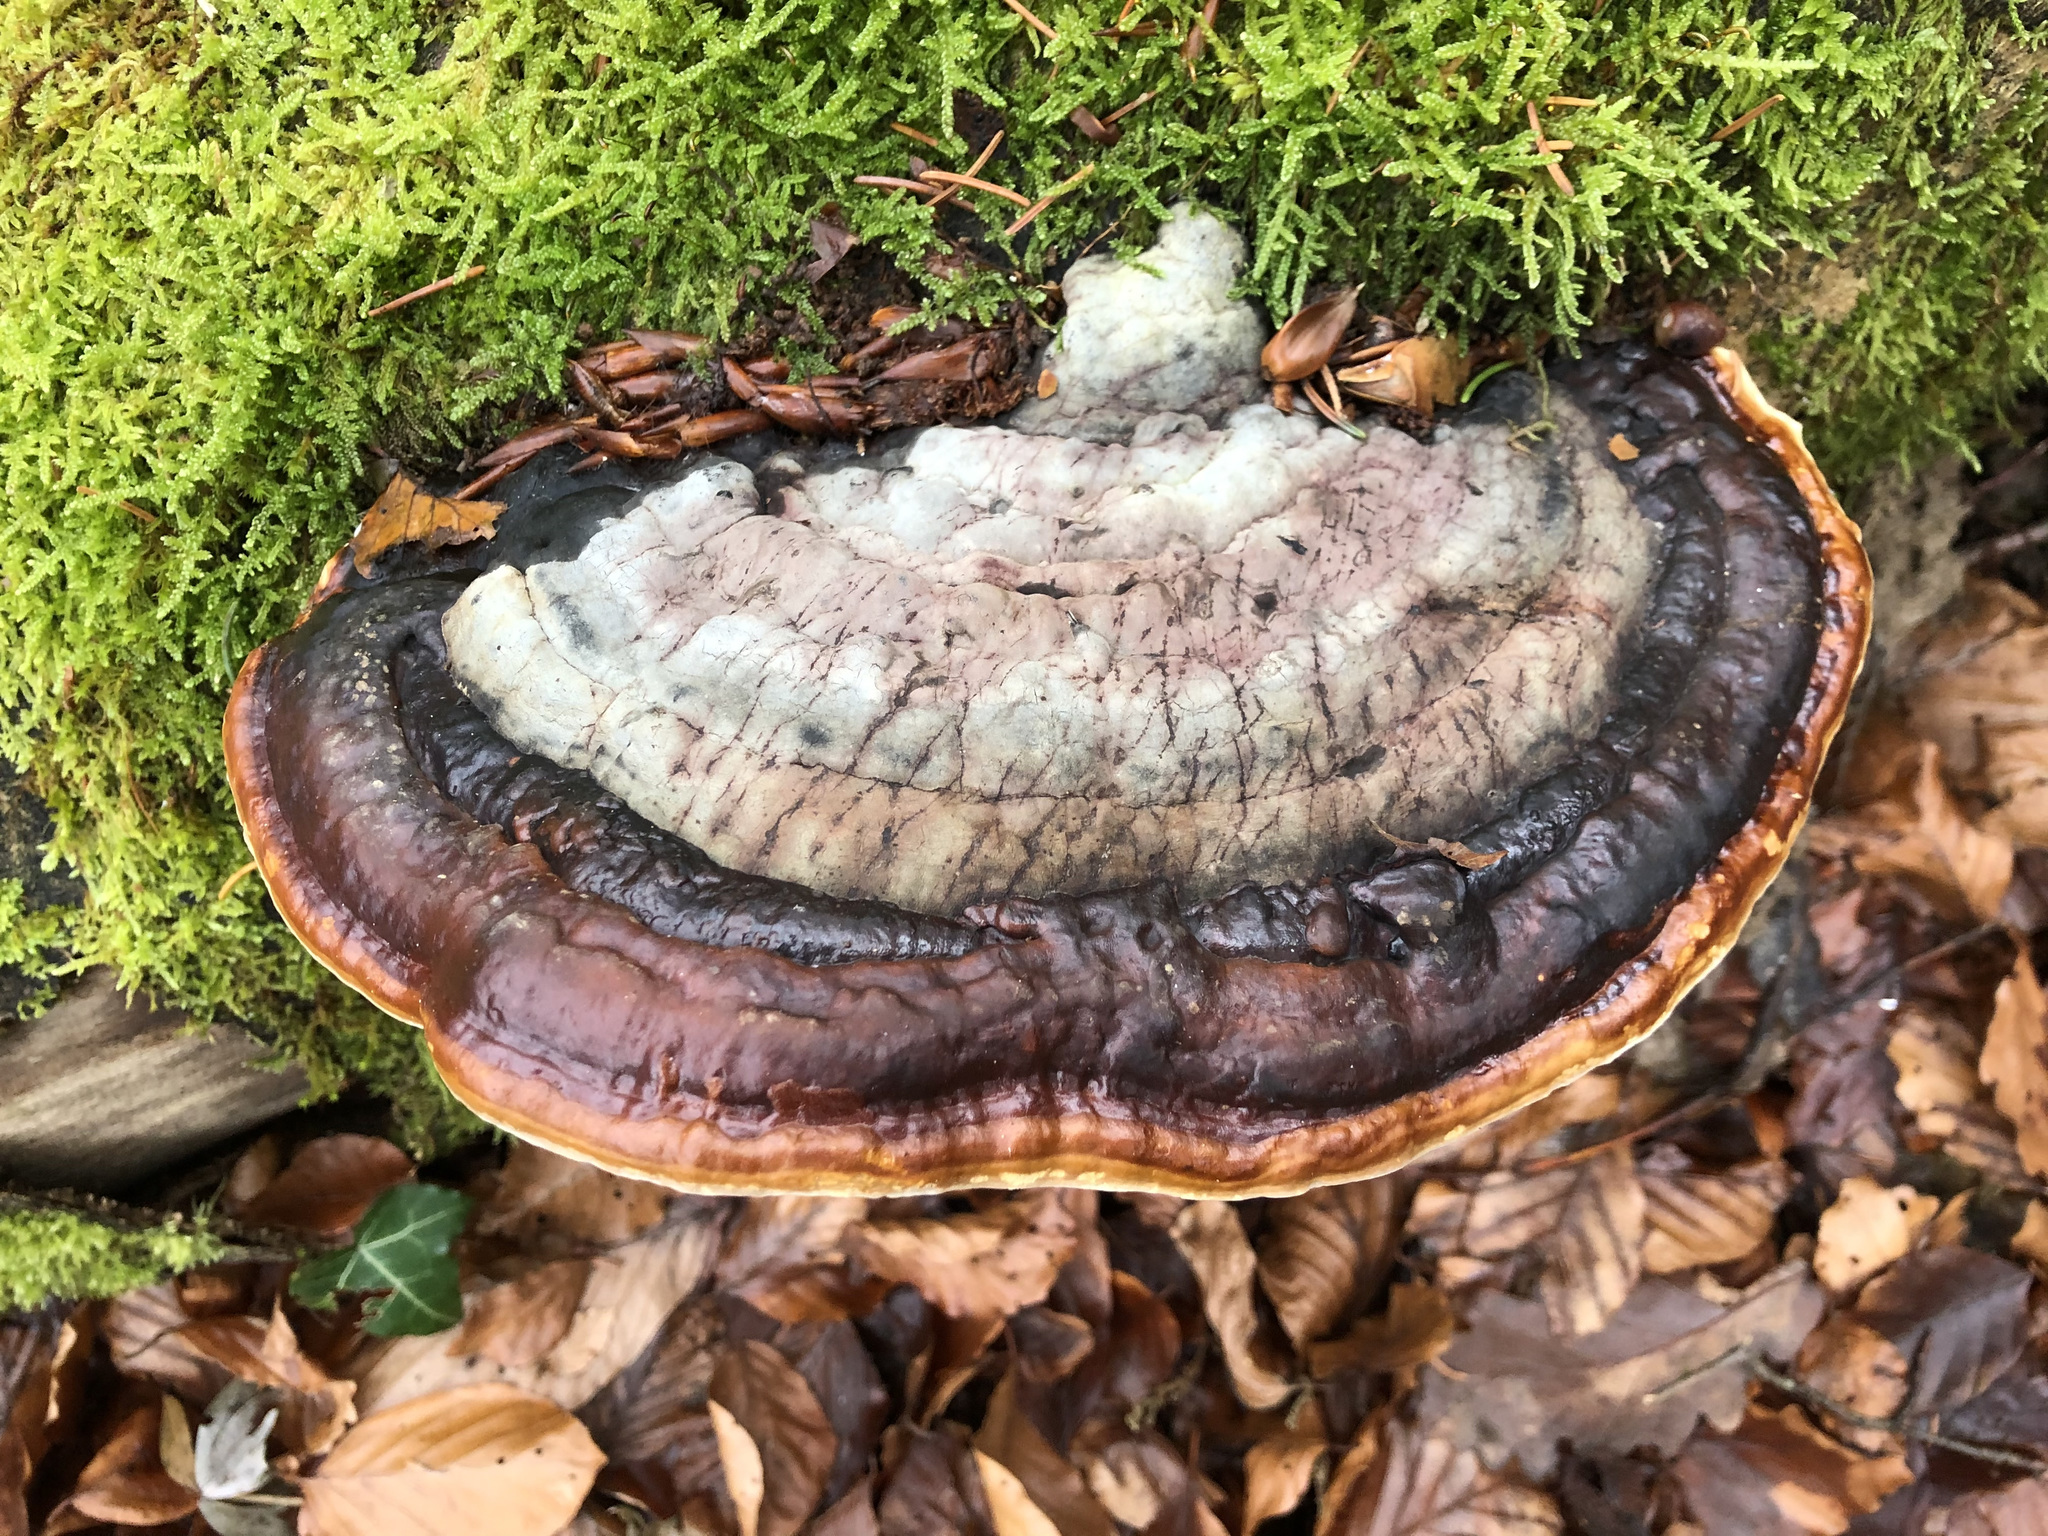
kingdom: Fungi
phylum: Basidiomycota
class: Agaricomycetes
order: Polyporales
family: Fomitopsidaceae
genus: Fomitopsis
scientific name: Fomitopsis pinicola
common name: Red-belted bracket
